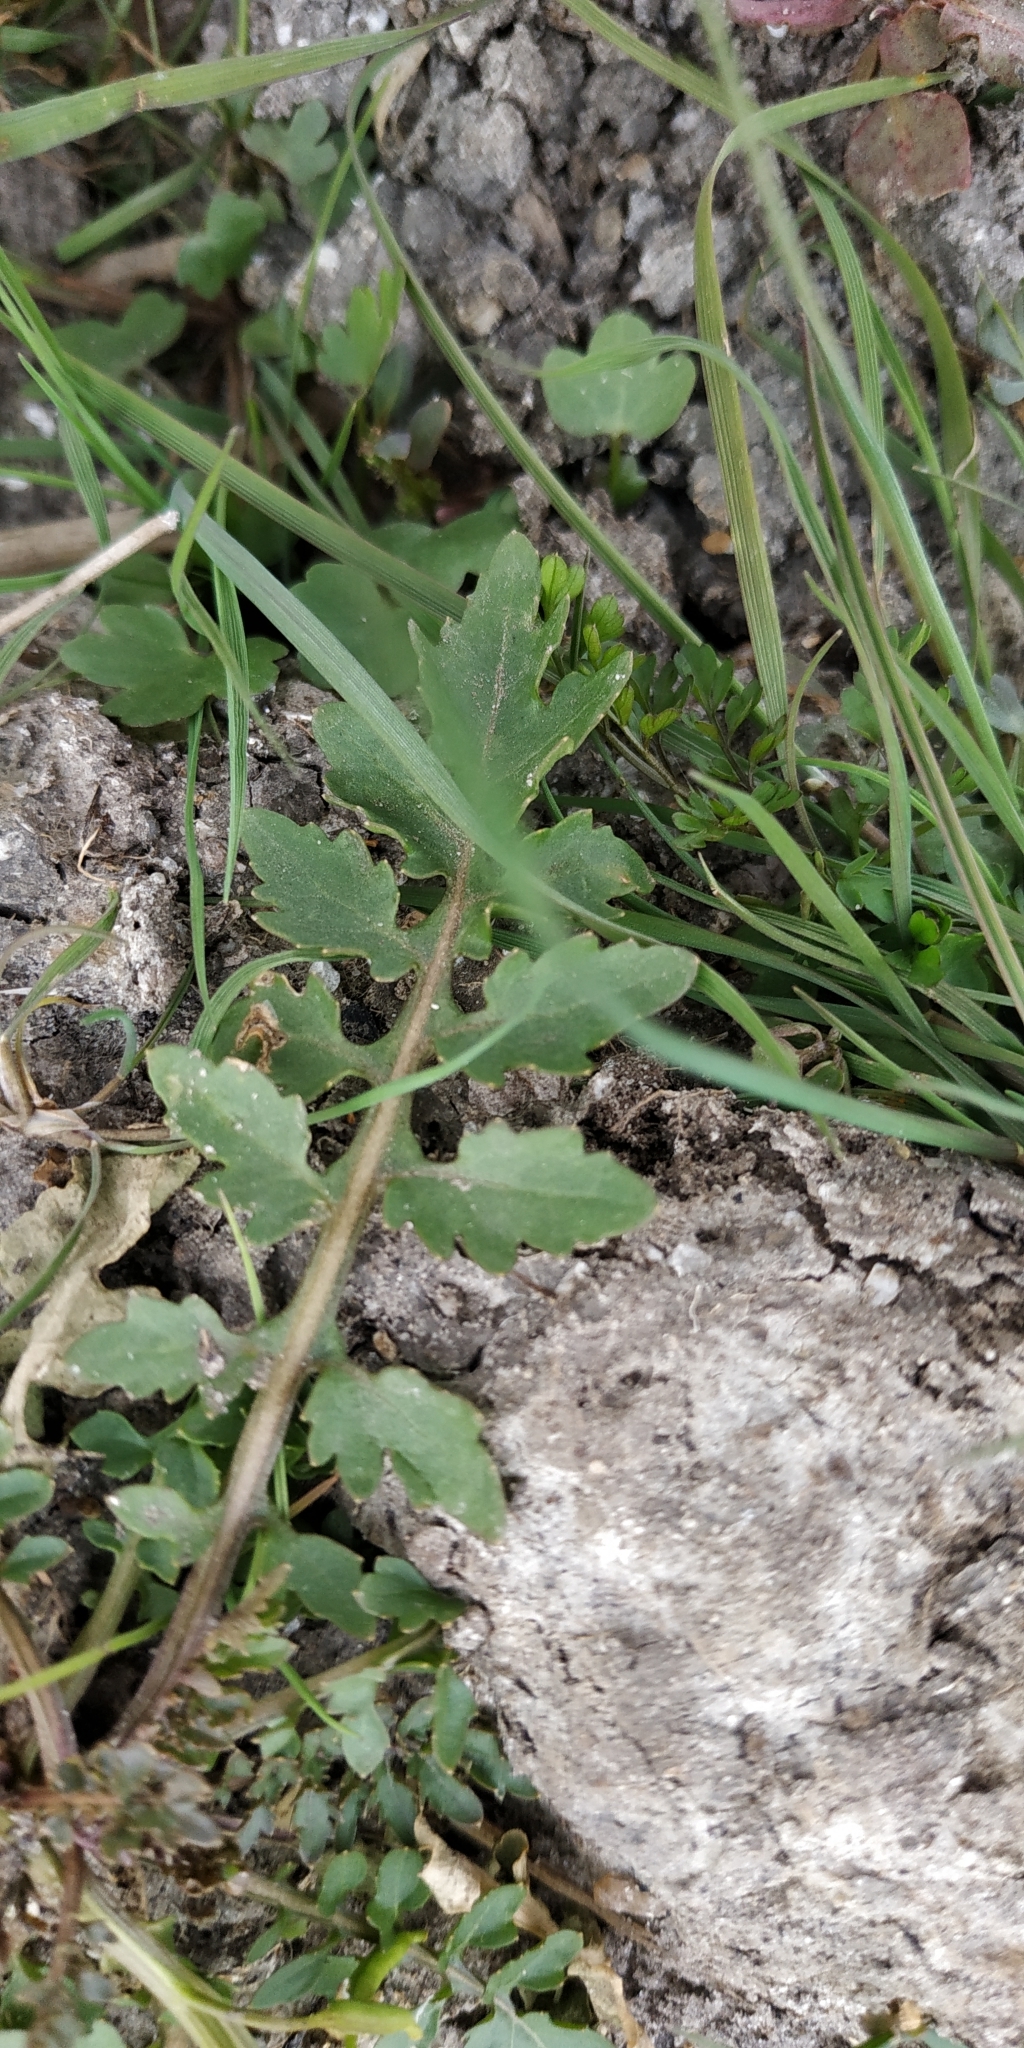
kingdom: Plantae
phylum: Tracheophyta
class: Magnoliopsida
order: Brassicales
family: Brassicaceae
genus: Rorippa
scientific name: Rorippa palustris
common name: Marsh yellow-cress
